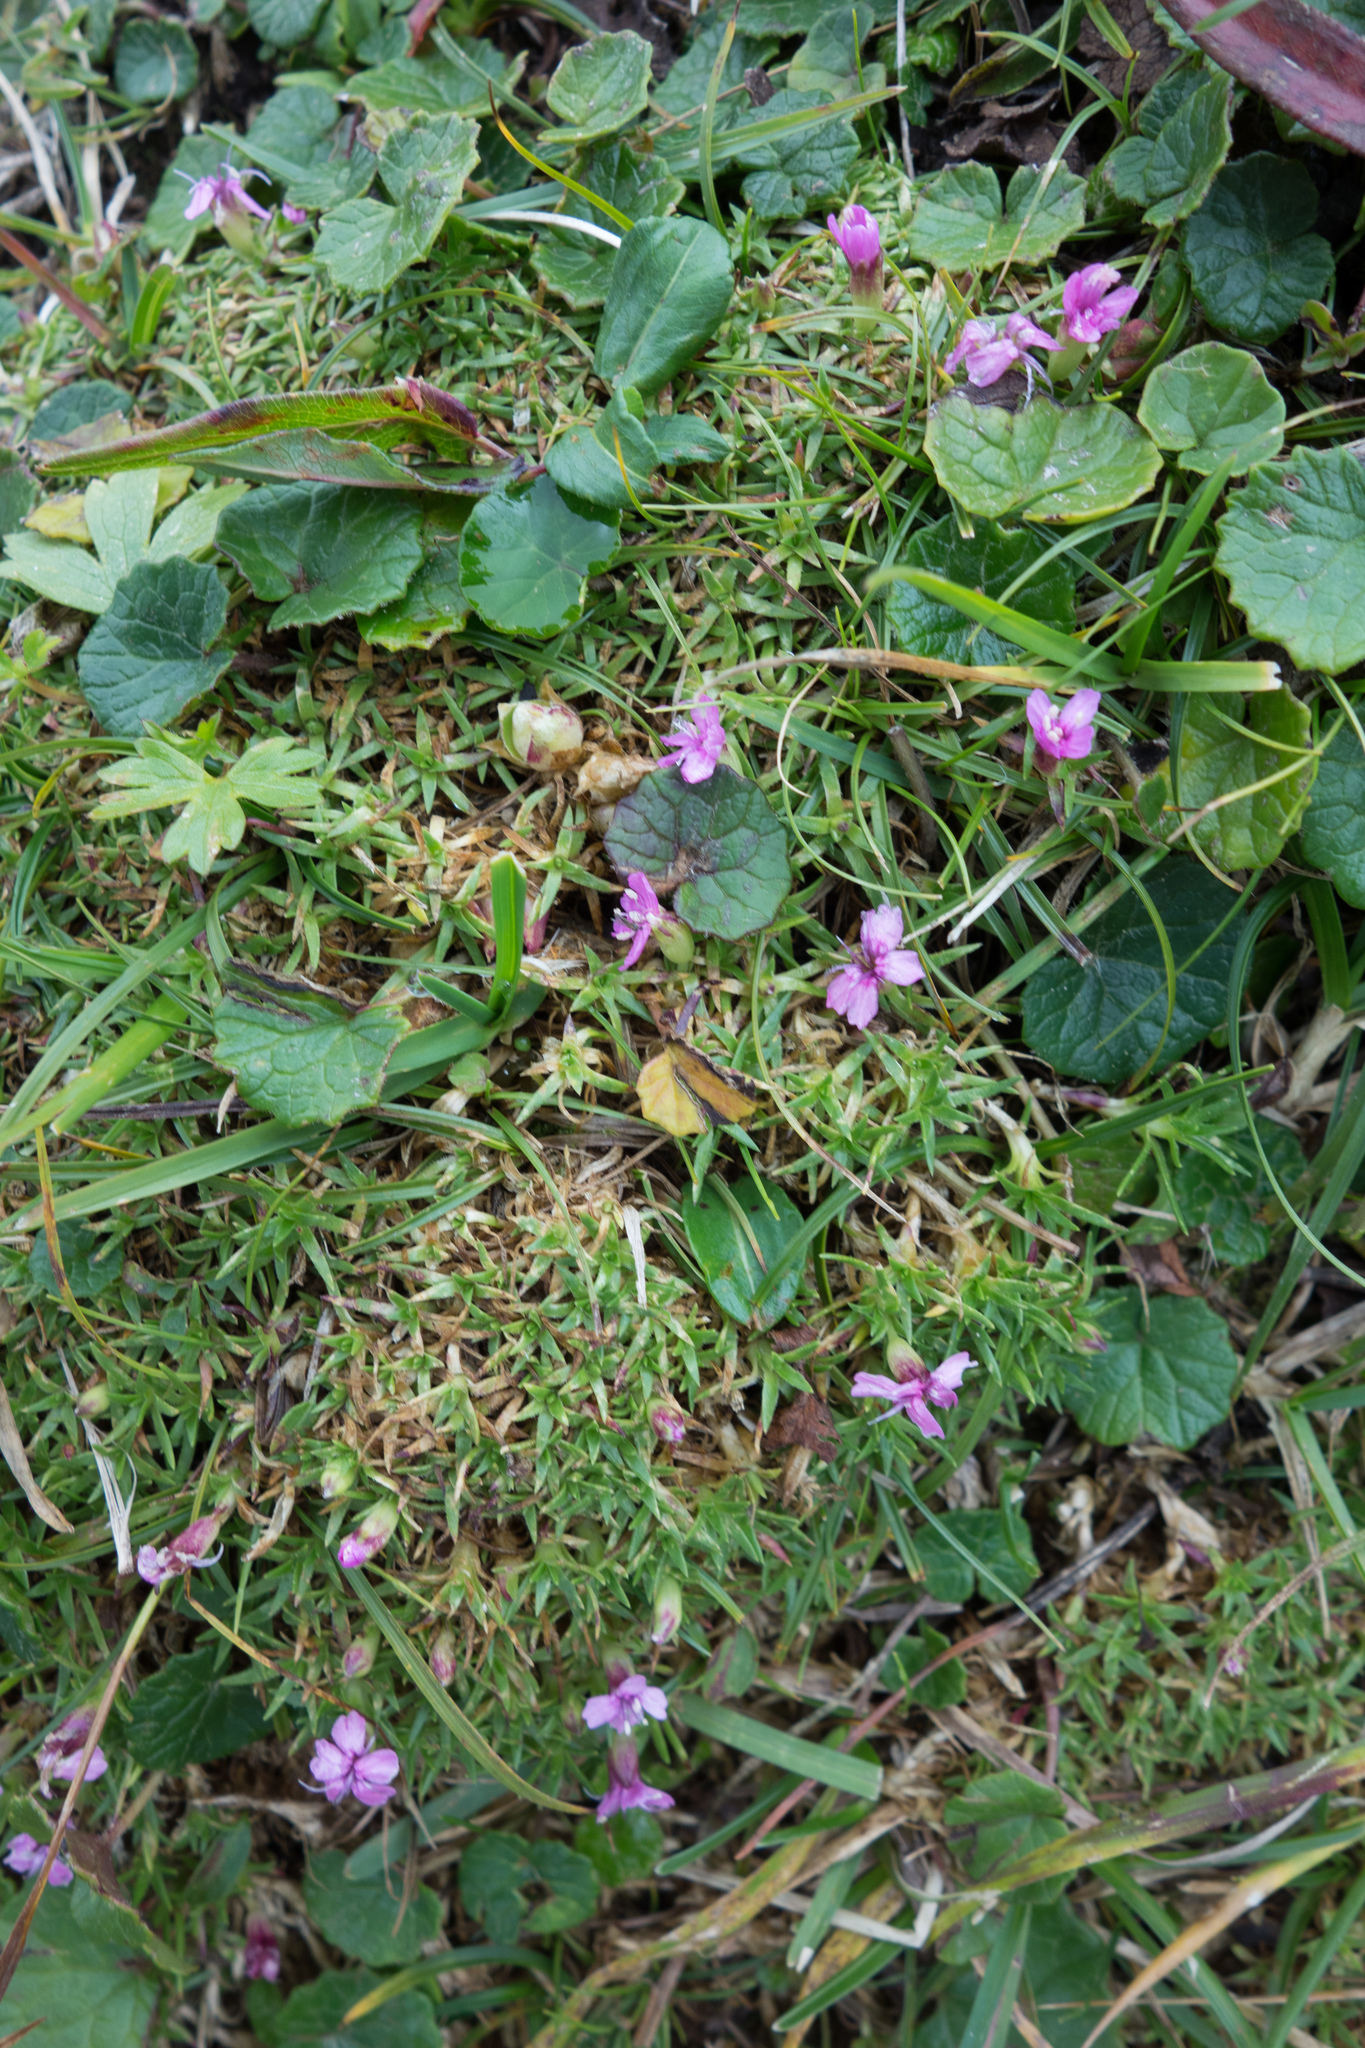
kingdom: Plantae
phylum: Tracheophyta
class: Magnoliopsida
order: Caryophyllales
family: Caryophyllaceae
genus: Silene
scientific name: Silene acaulis
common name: Moss campion
